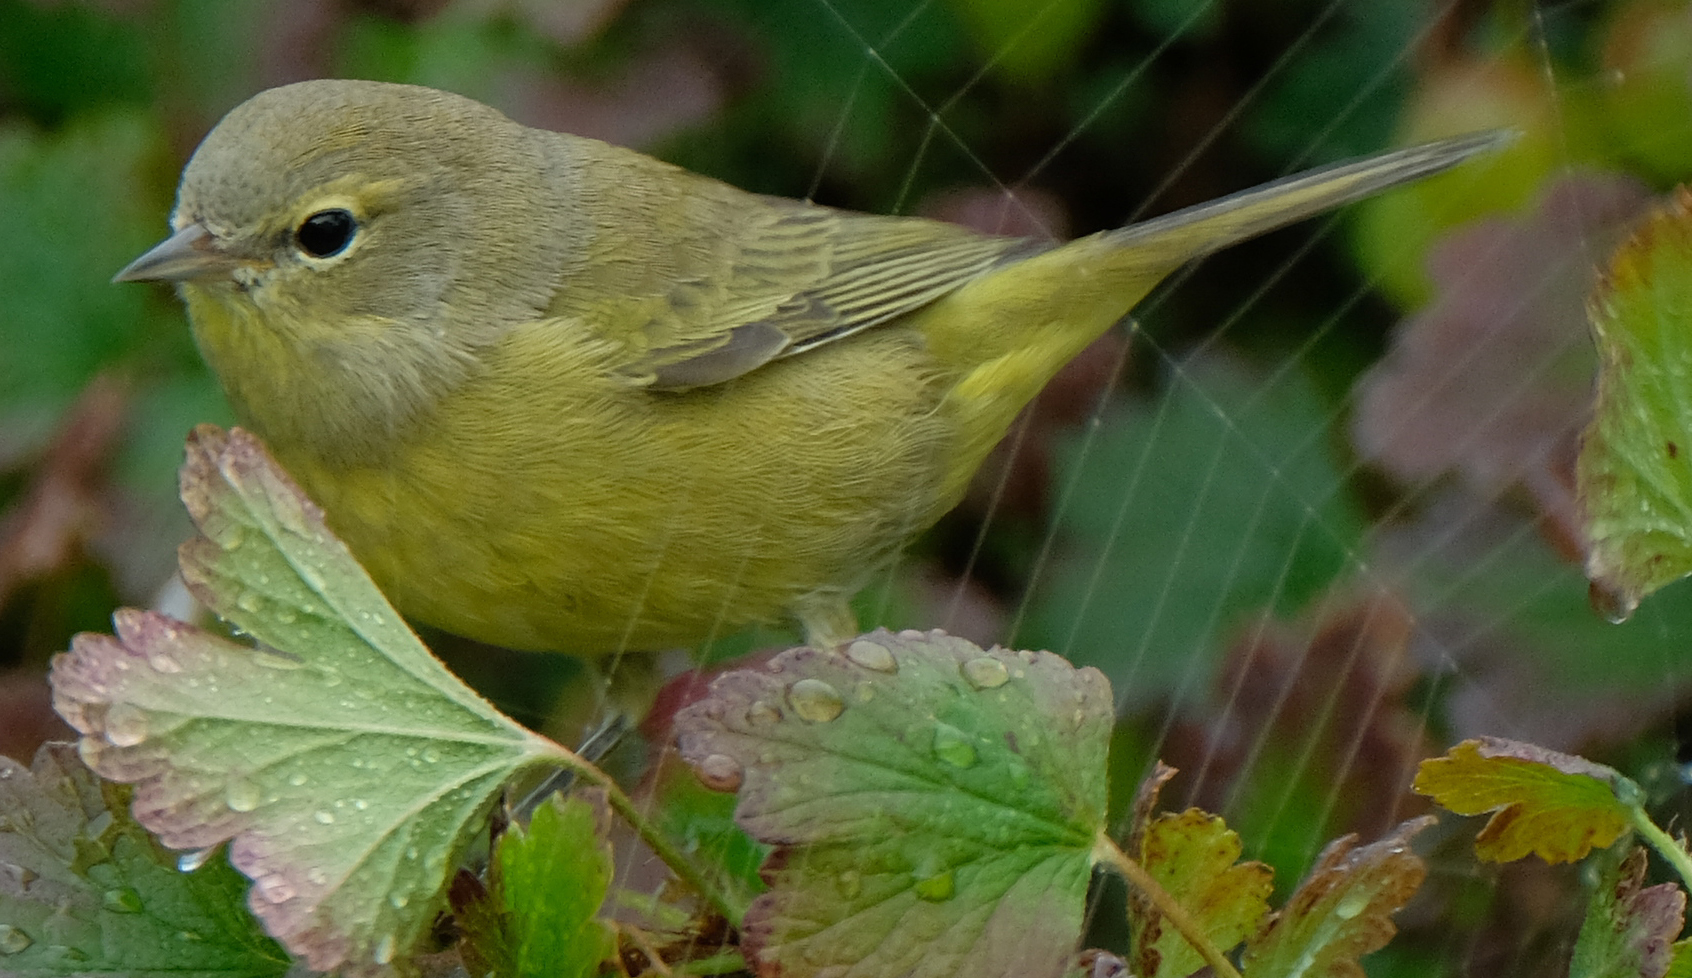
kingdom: Animalia
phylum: Chordata
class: Aves
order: Passeriformes
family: Parulidae
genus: Leiothlypis
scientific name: Leiothlypis celata
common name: Orange-crowned warbler
